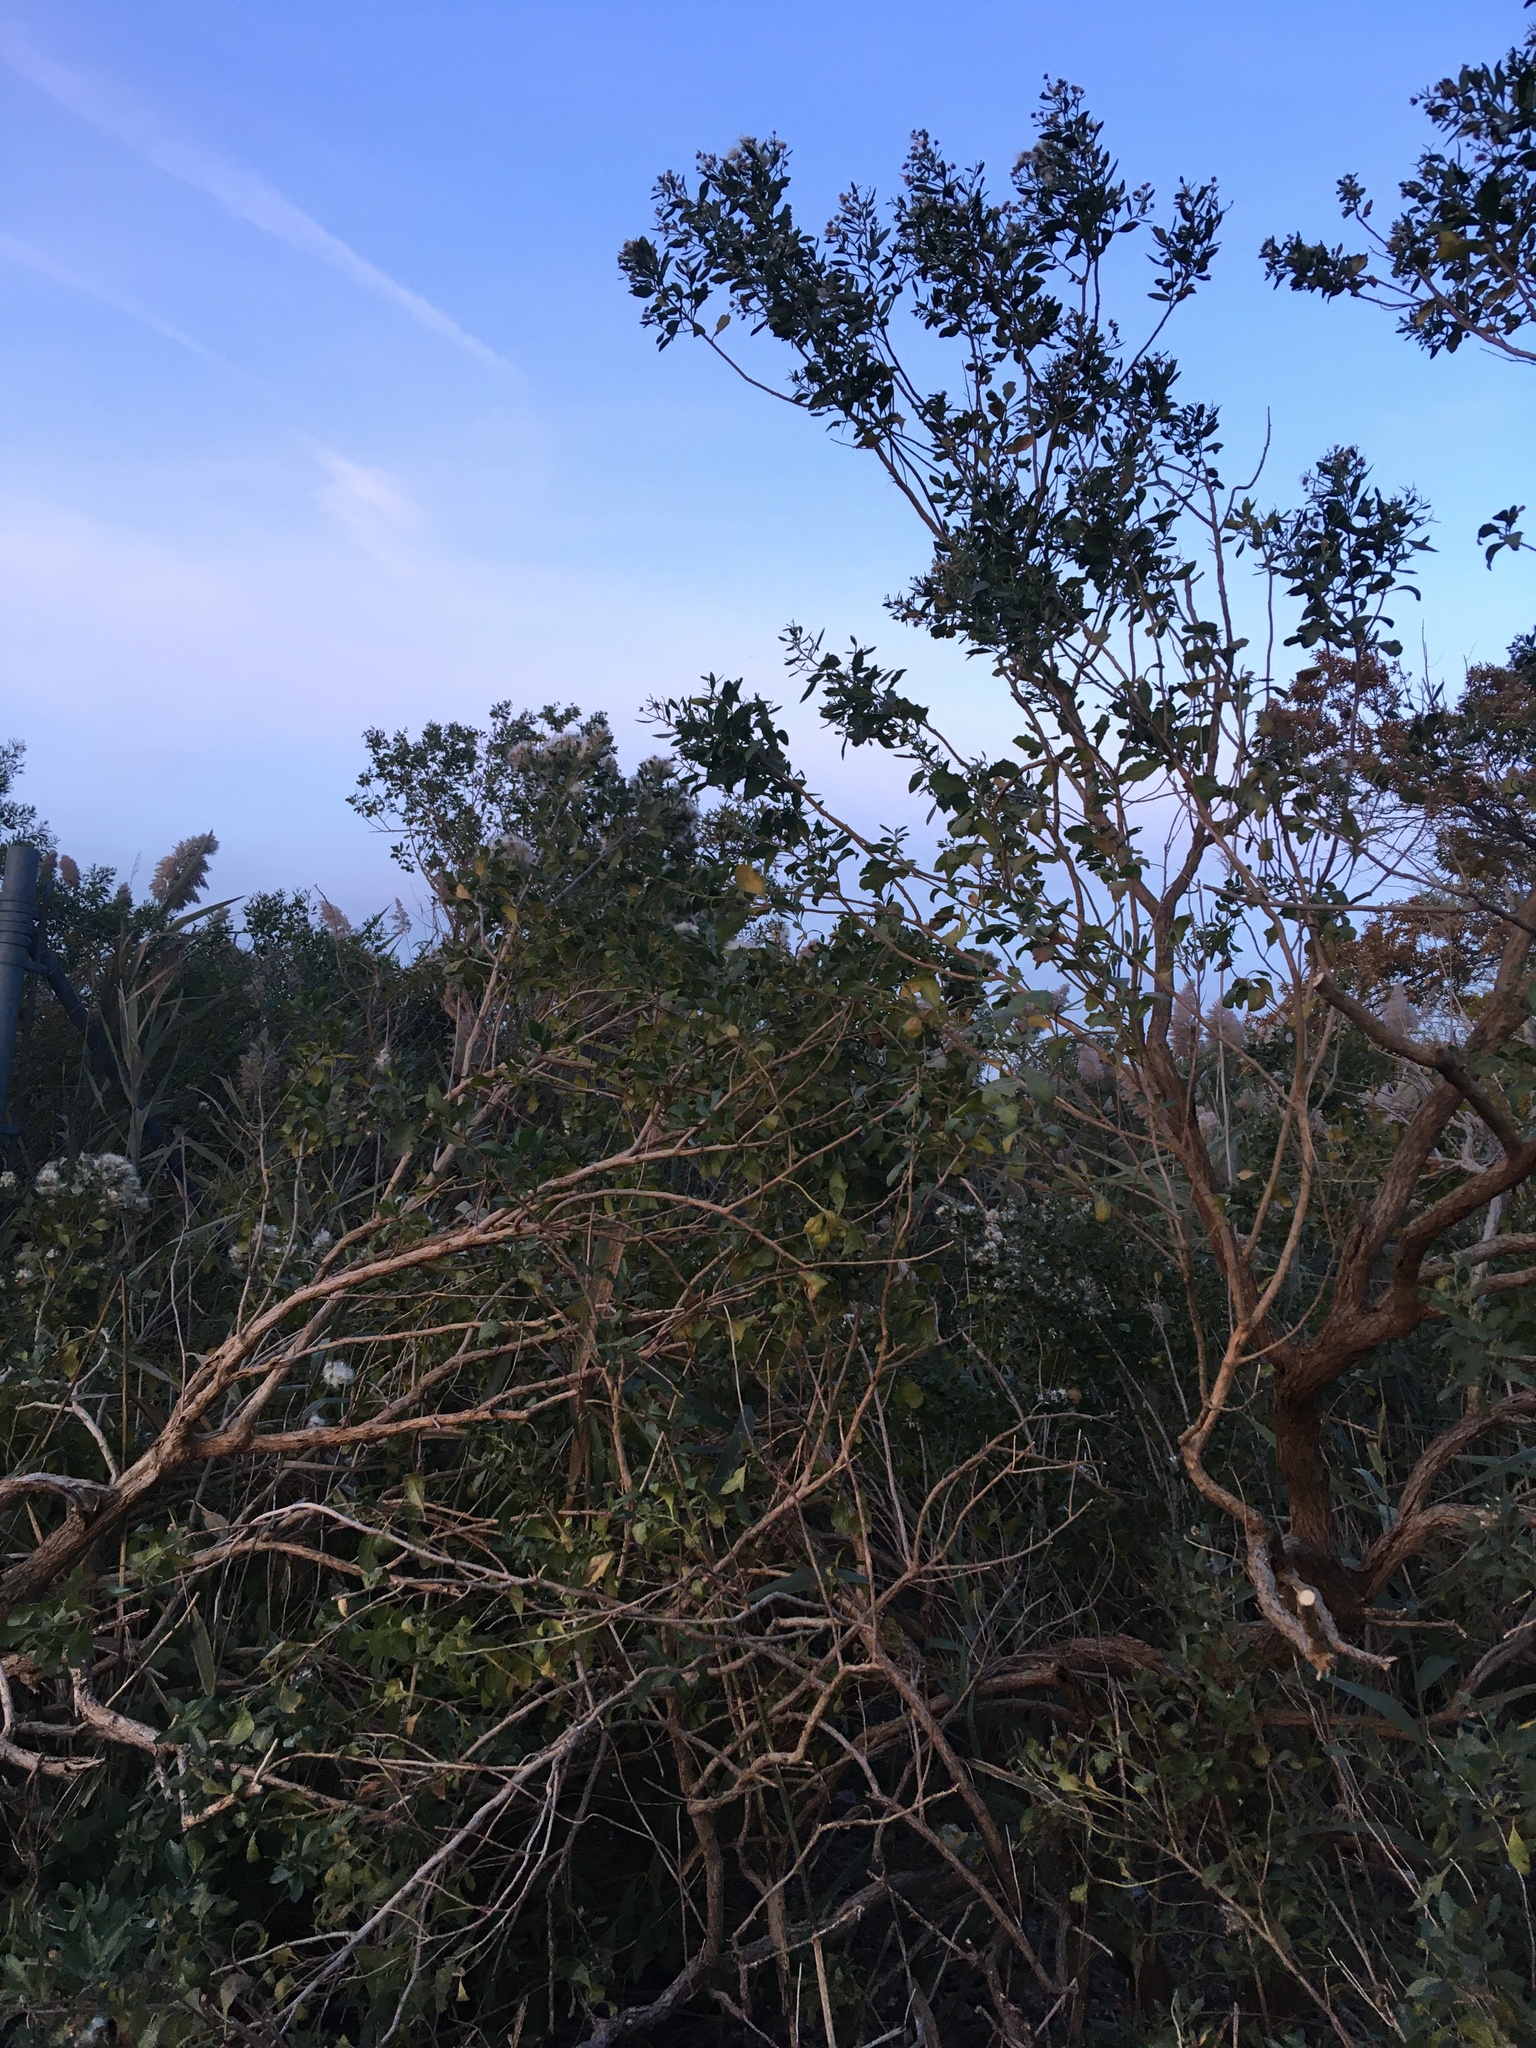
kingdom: Plantae
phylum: Tracheophyta
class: Magnoliopsida
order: Asterales
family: Asteraceae
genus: Baccharis
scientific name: Baccharis halimifolia
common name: Eastern baccharis
